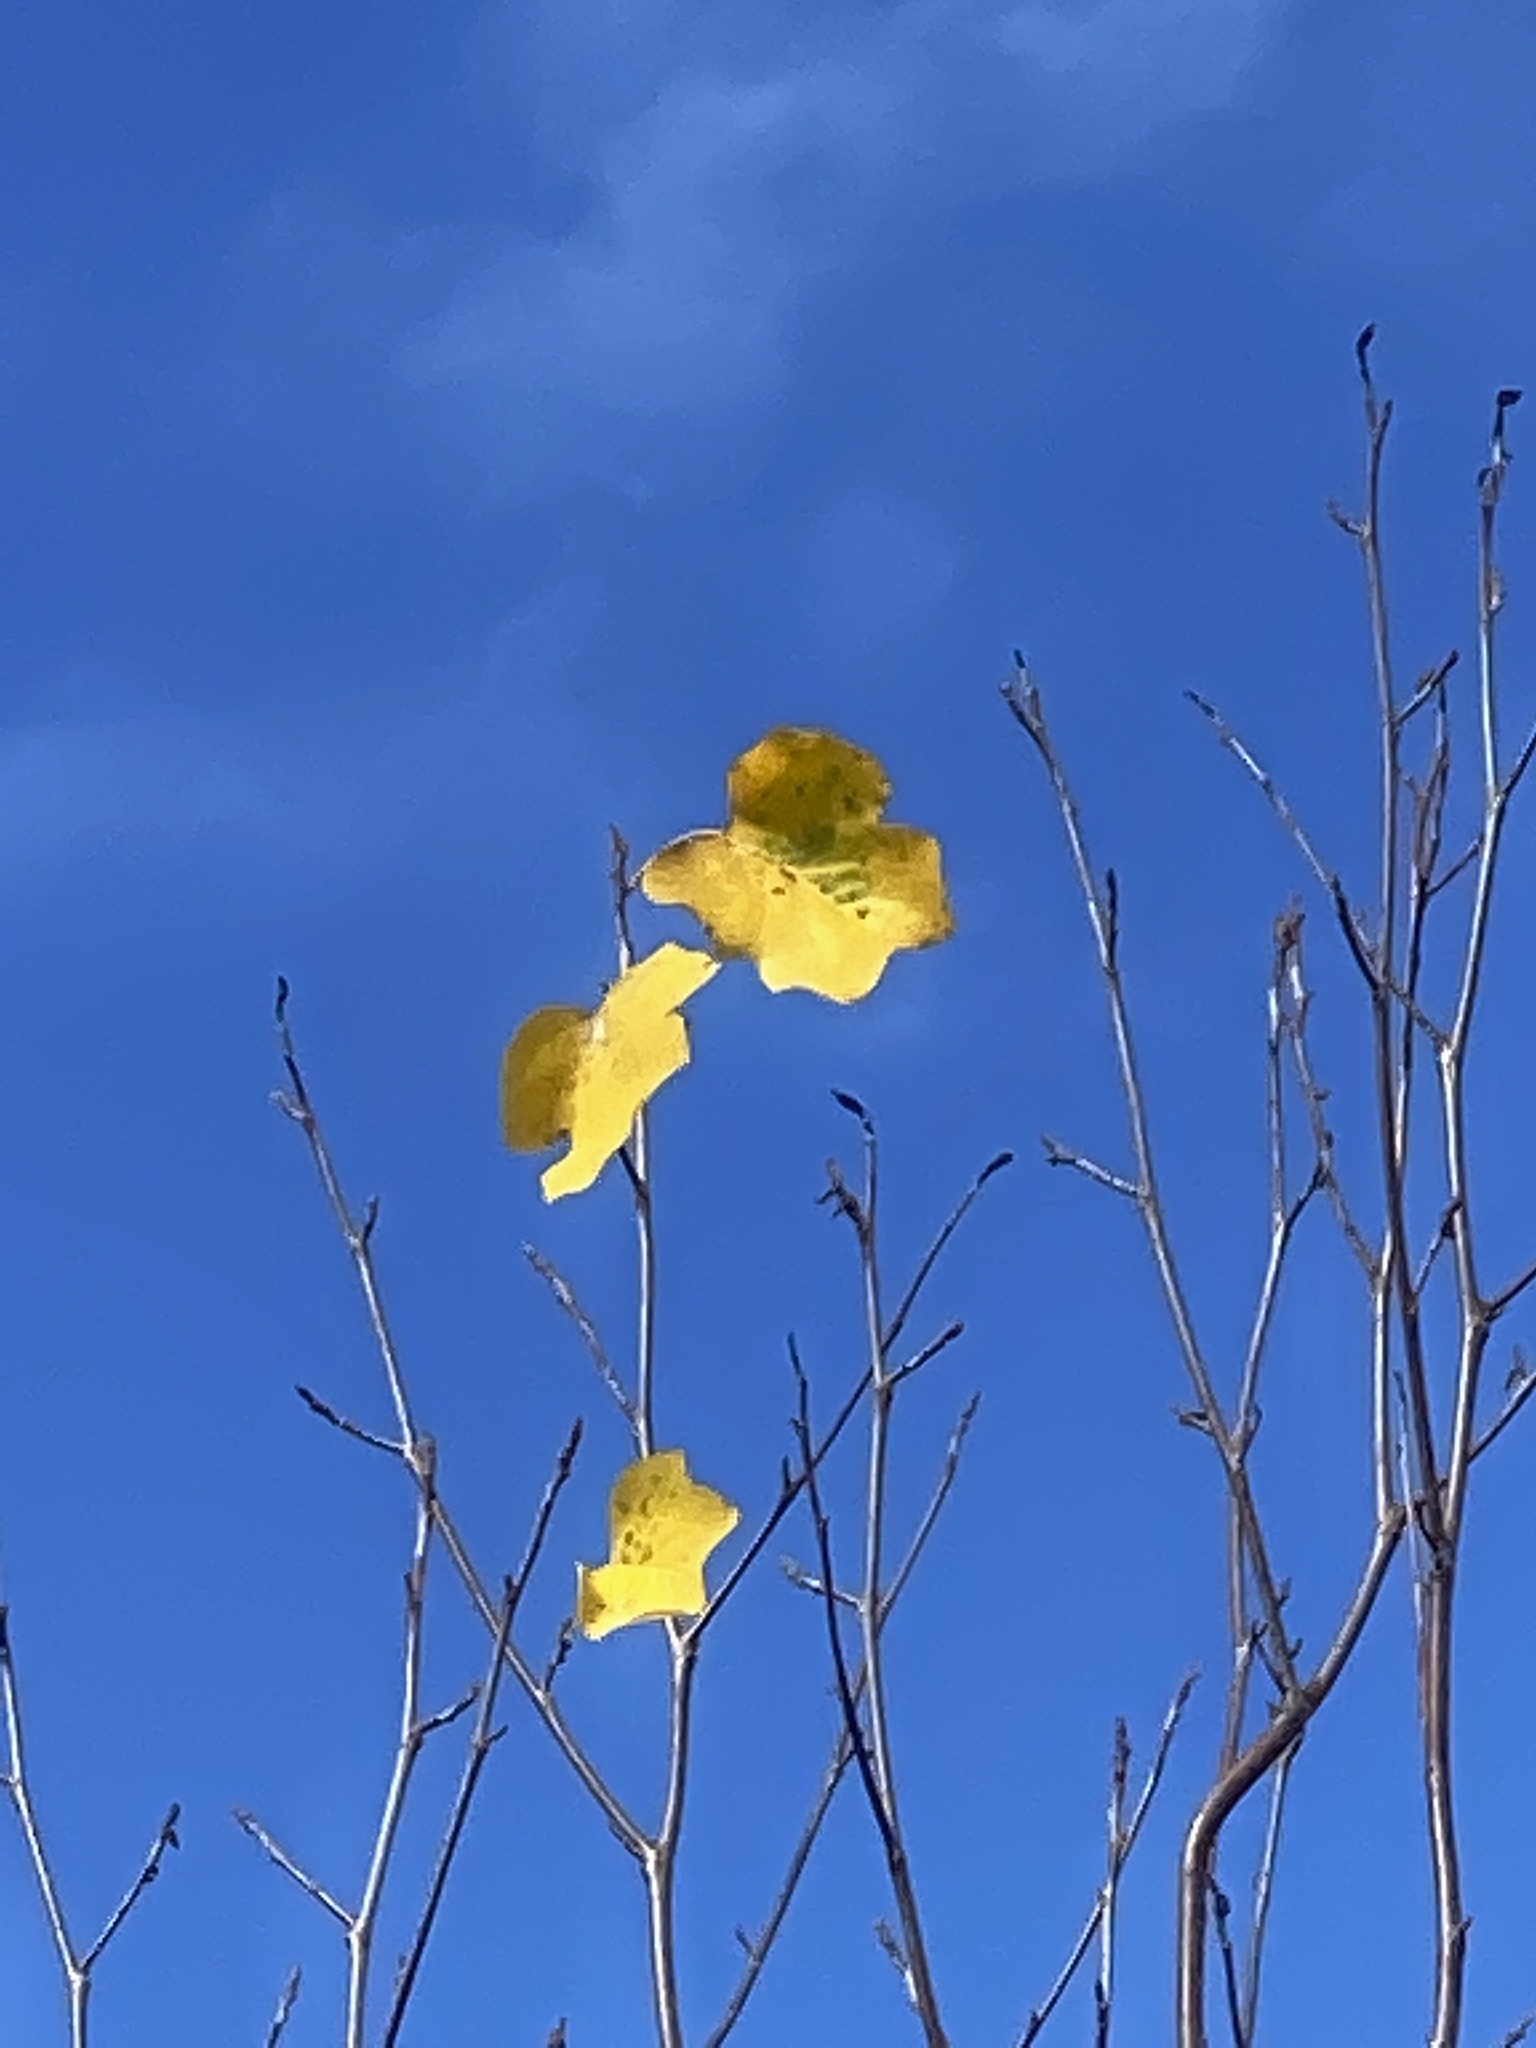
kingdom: Plantae
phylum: Tracheophyta
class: Magnoliopsida
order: Magnoliales
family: Magnoliaceae
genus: Liriodendron
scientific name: Liriodendron tulipifera
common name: Tulip tree
